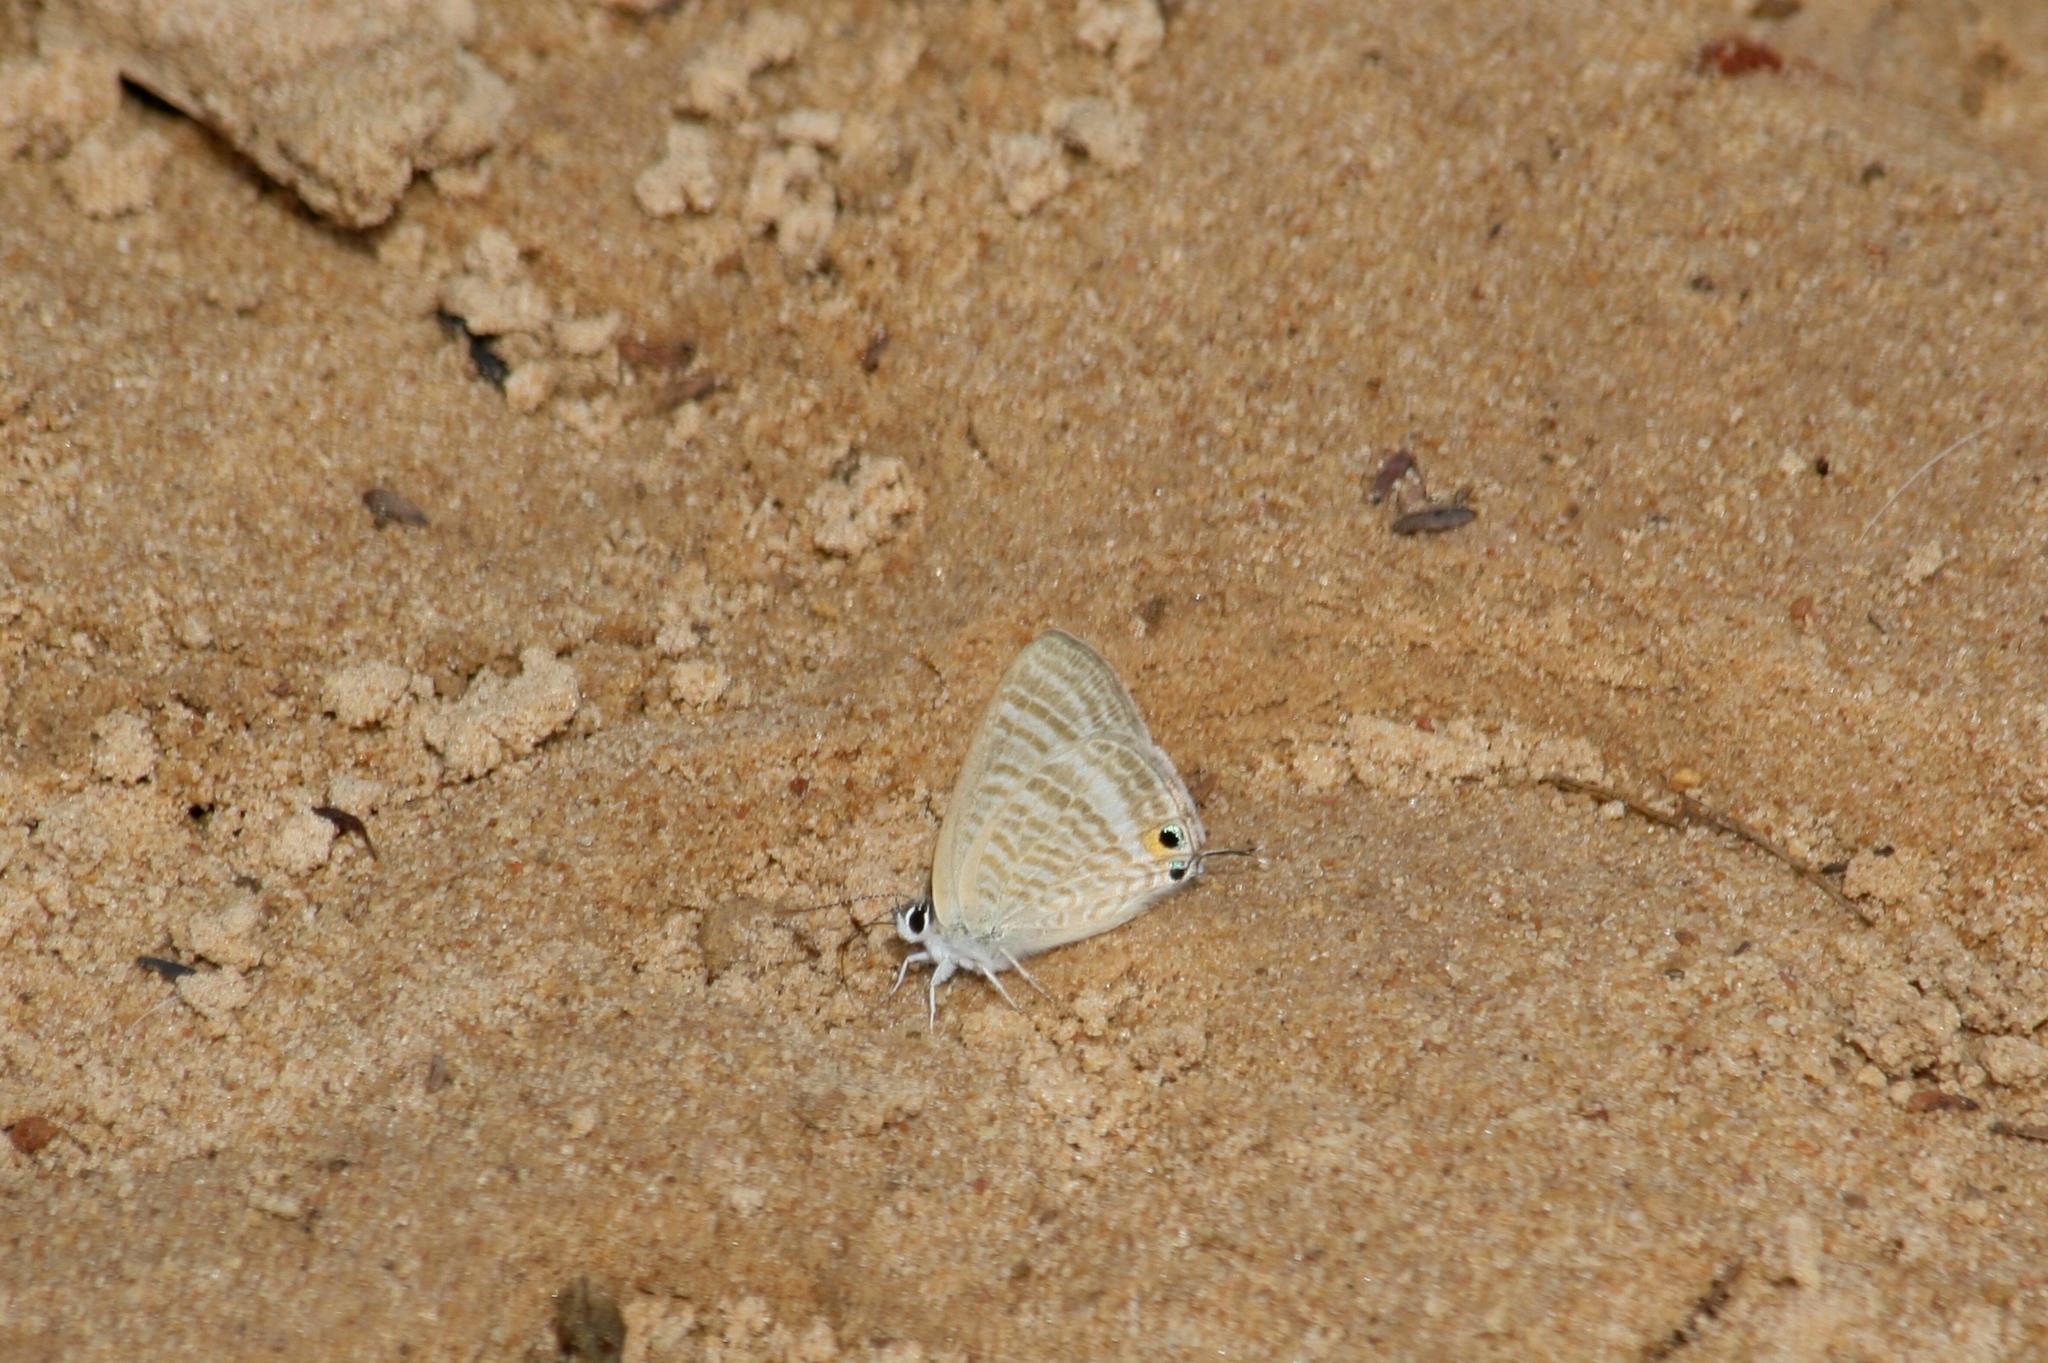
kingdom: Animalia
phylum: Arthropoda
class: Insecta
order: Lepidoptera
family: Lycaenidae
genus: Lampides
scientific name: Lampides boeticus
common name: Long-tailed blue
